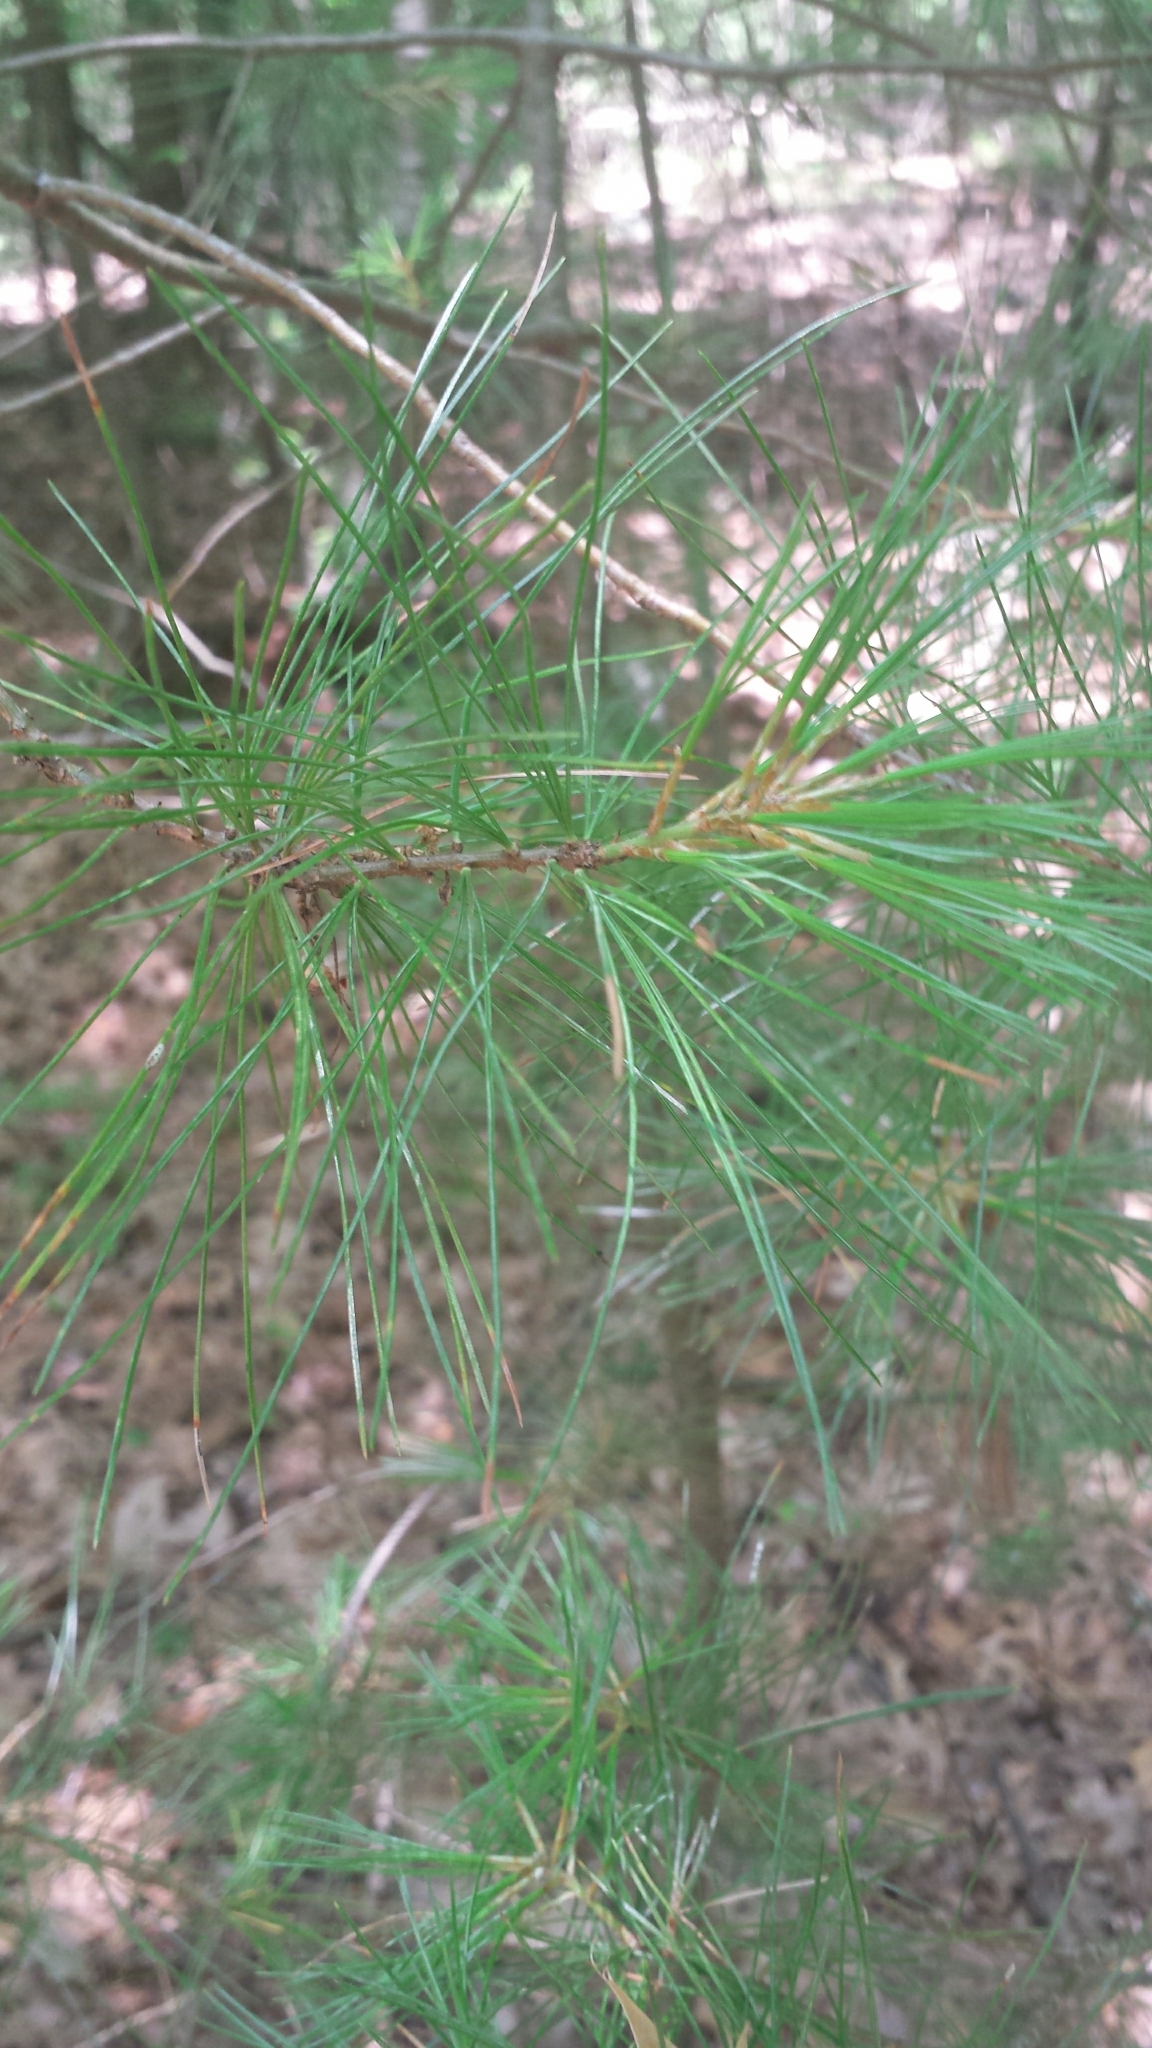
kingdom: Plantae
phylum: Tracheophyta
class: Pinopsida
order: Pinales
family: Pinaceae
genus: Pinus
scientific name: Pinus strobus
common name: Weymouth pine
